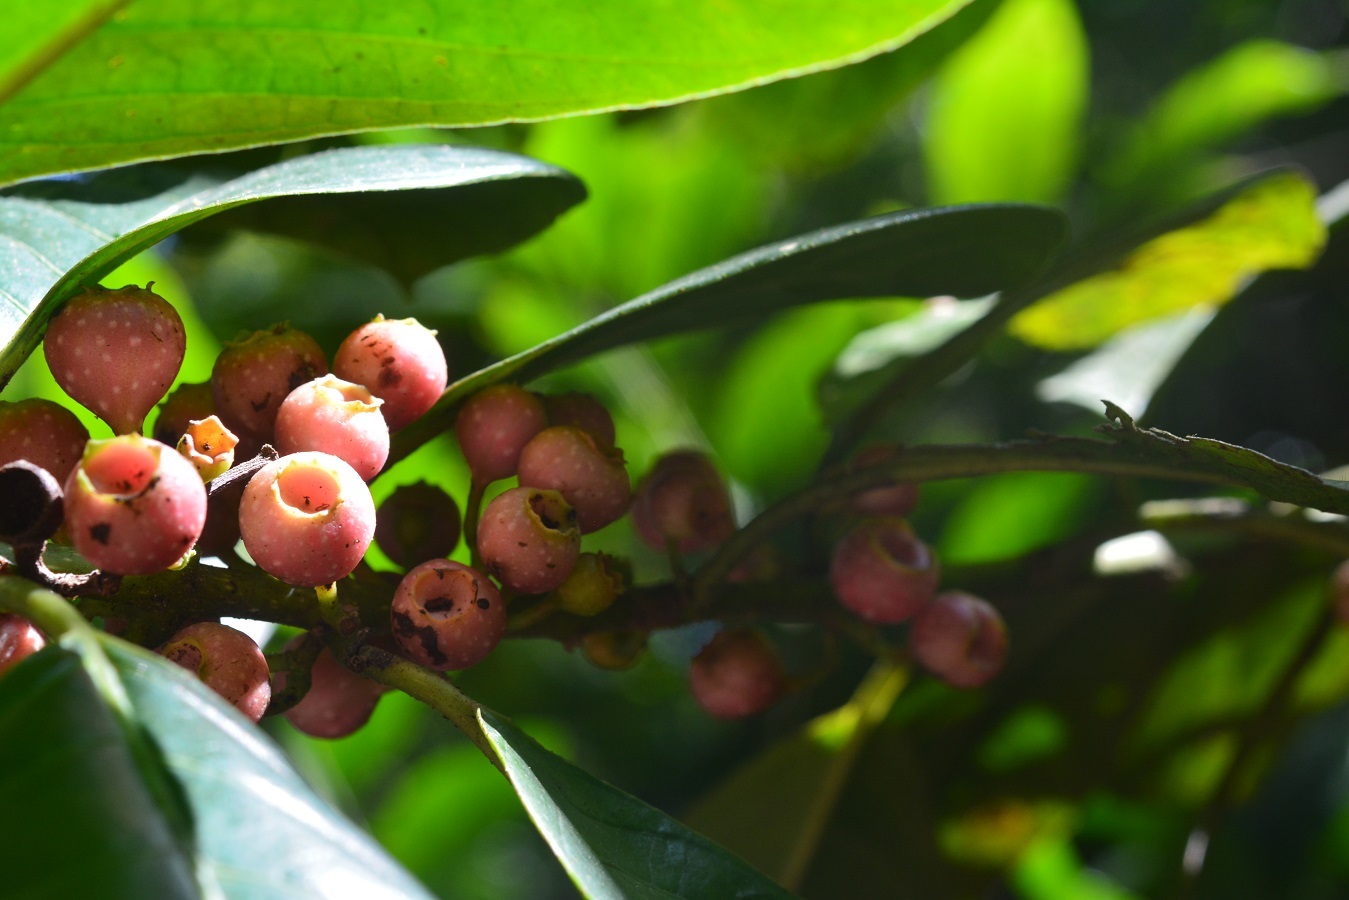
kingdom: Plantae
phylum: Tracheophyta
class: Magnoliopsida
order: Laurales
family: Siparunaceae
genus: Siparuna
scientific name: Siparuna thecaphora
